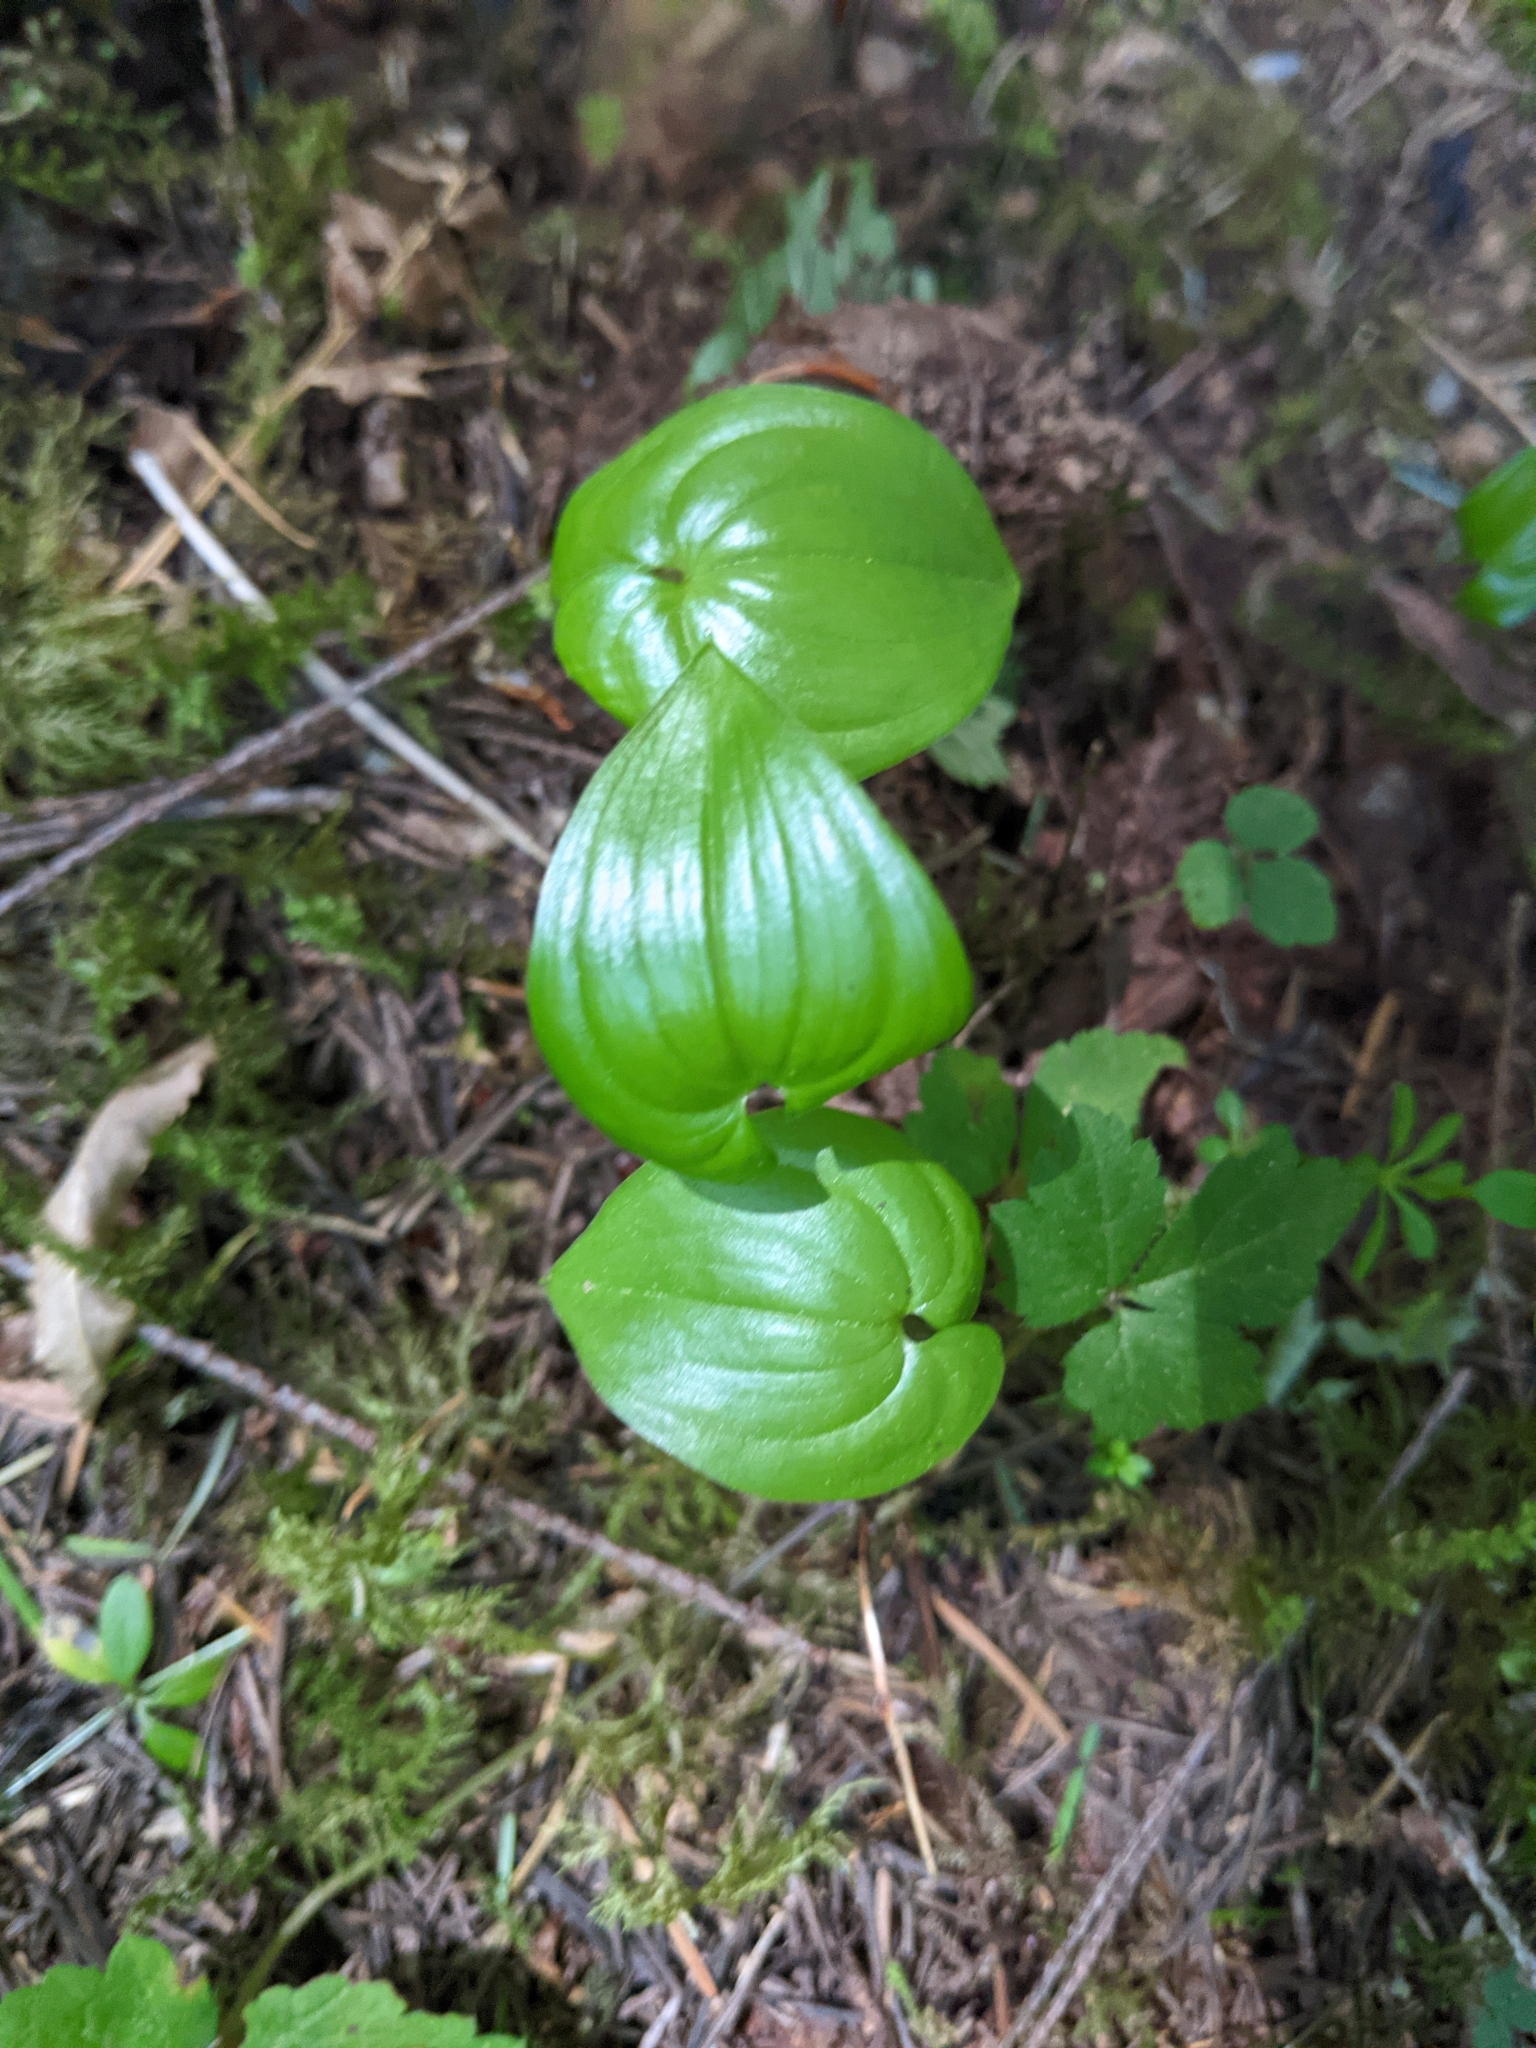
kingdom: Plantae
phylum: Tracheophyta
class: Liliopsida
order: Asparagales
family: Asparagaceae
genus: Maianthemum
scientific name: Maianthemum dilatatum
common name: False lily-of-the-valley
